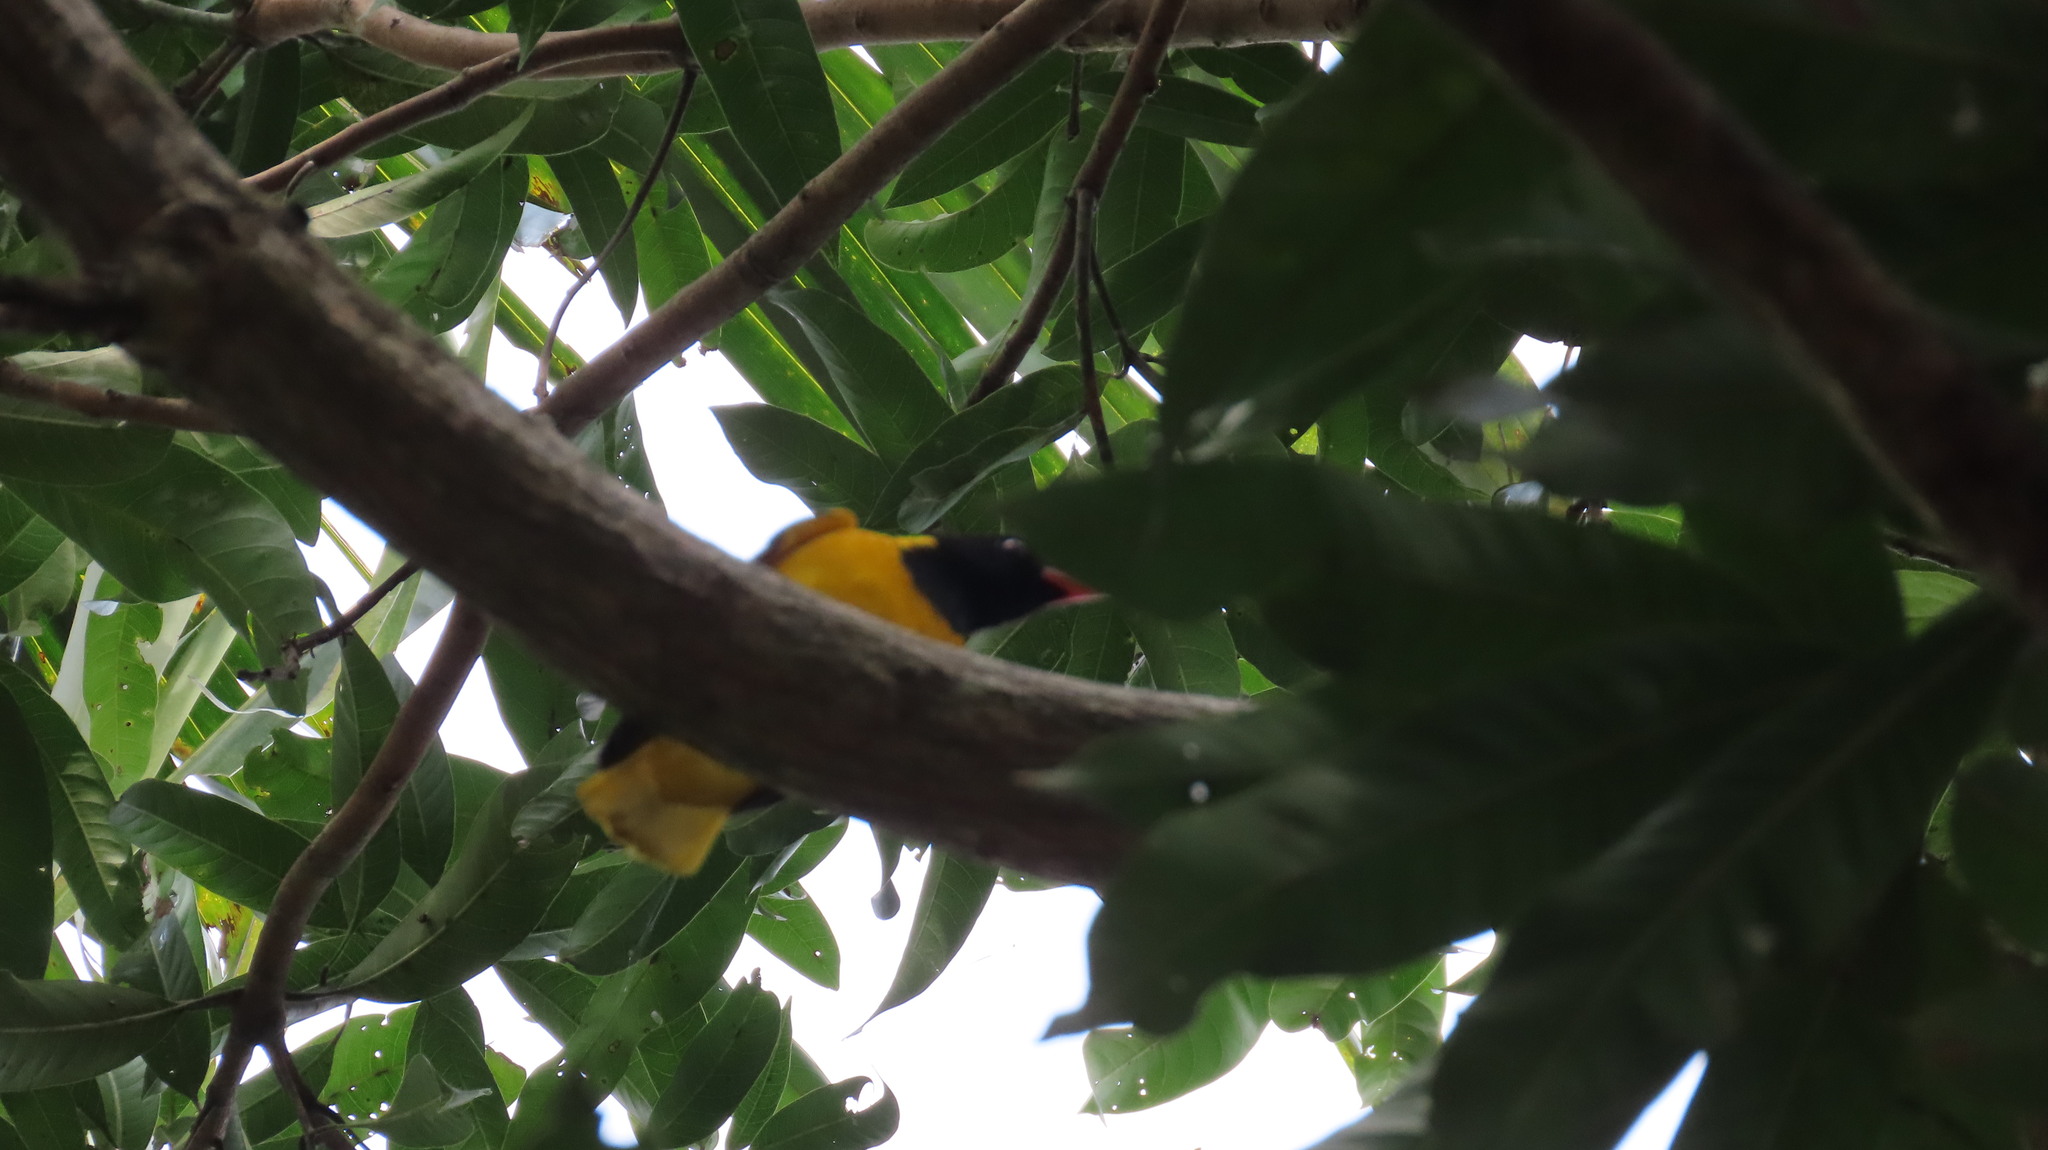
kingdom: Animalia
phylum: Chordata
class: Aves
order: Passeriformes
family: Oriolidae
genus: Oriolus
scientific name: Oriolus xanthornus
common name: Black-hooded oriole
